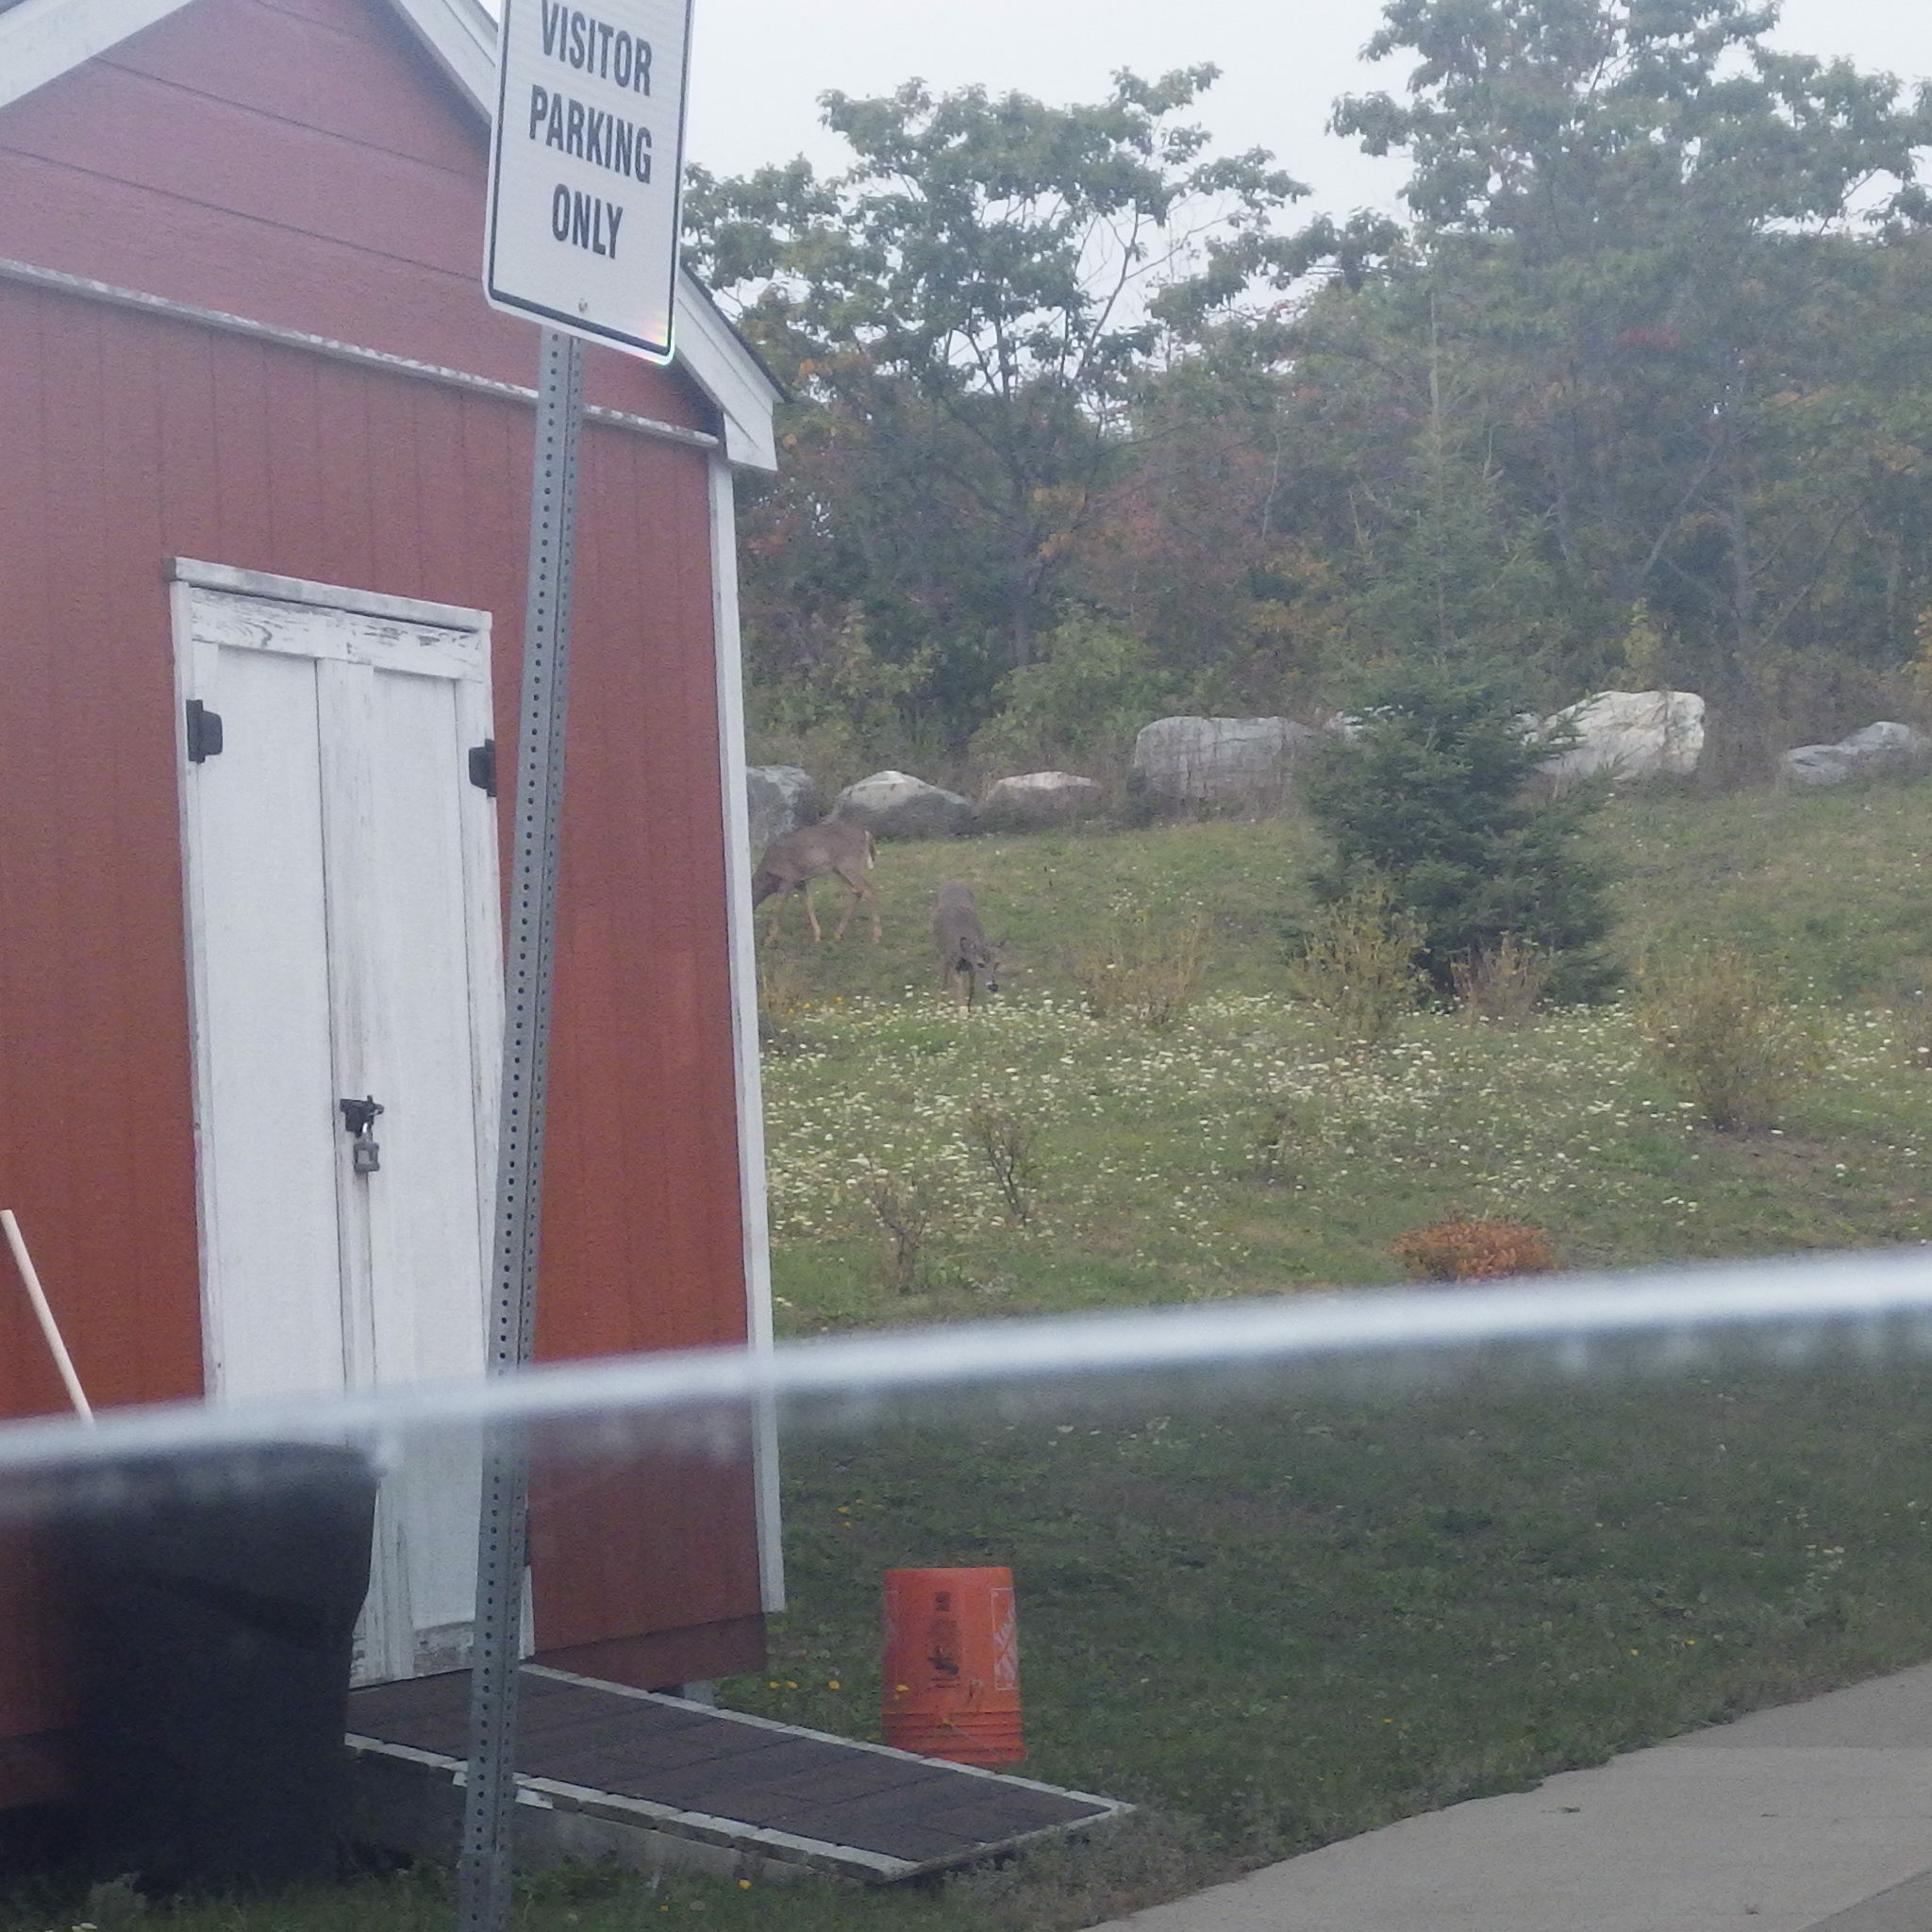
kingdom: Animalia
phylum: Chordata
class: Mammalia
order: Artiodactyla
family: Cervidae
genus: Odocoileus
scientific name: Odocoileus virginianus
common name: White-tailed deer
